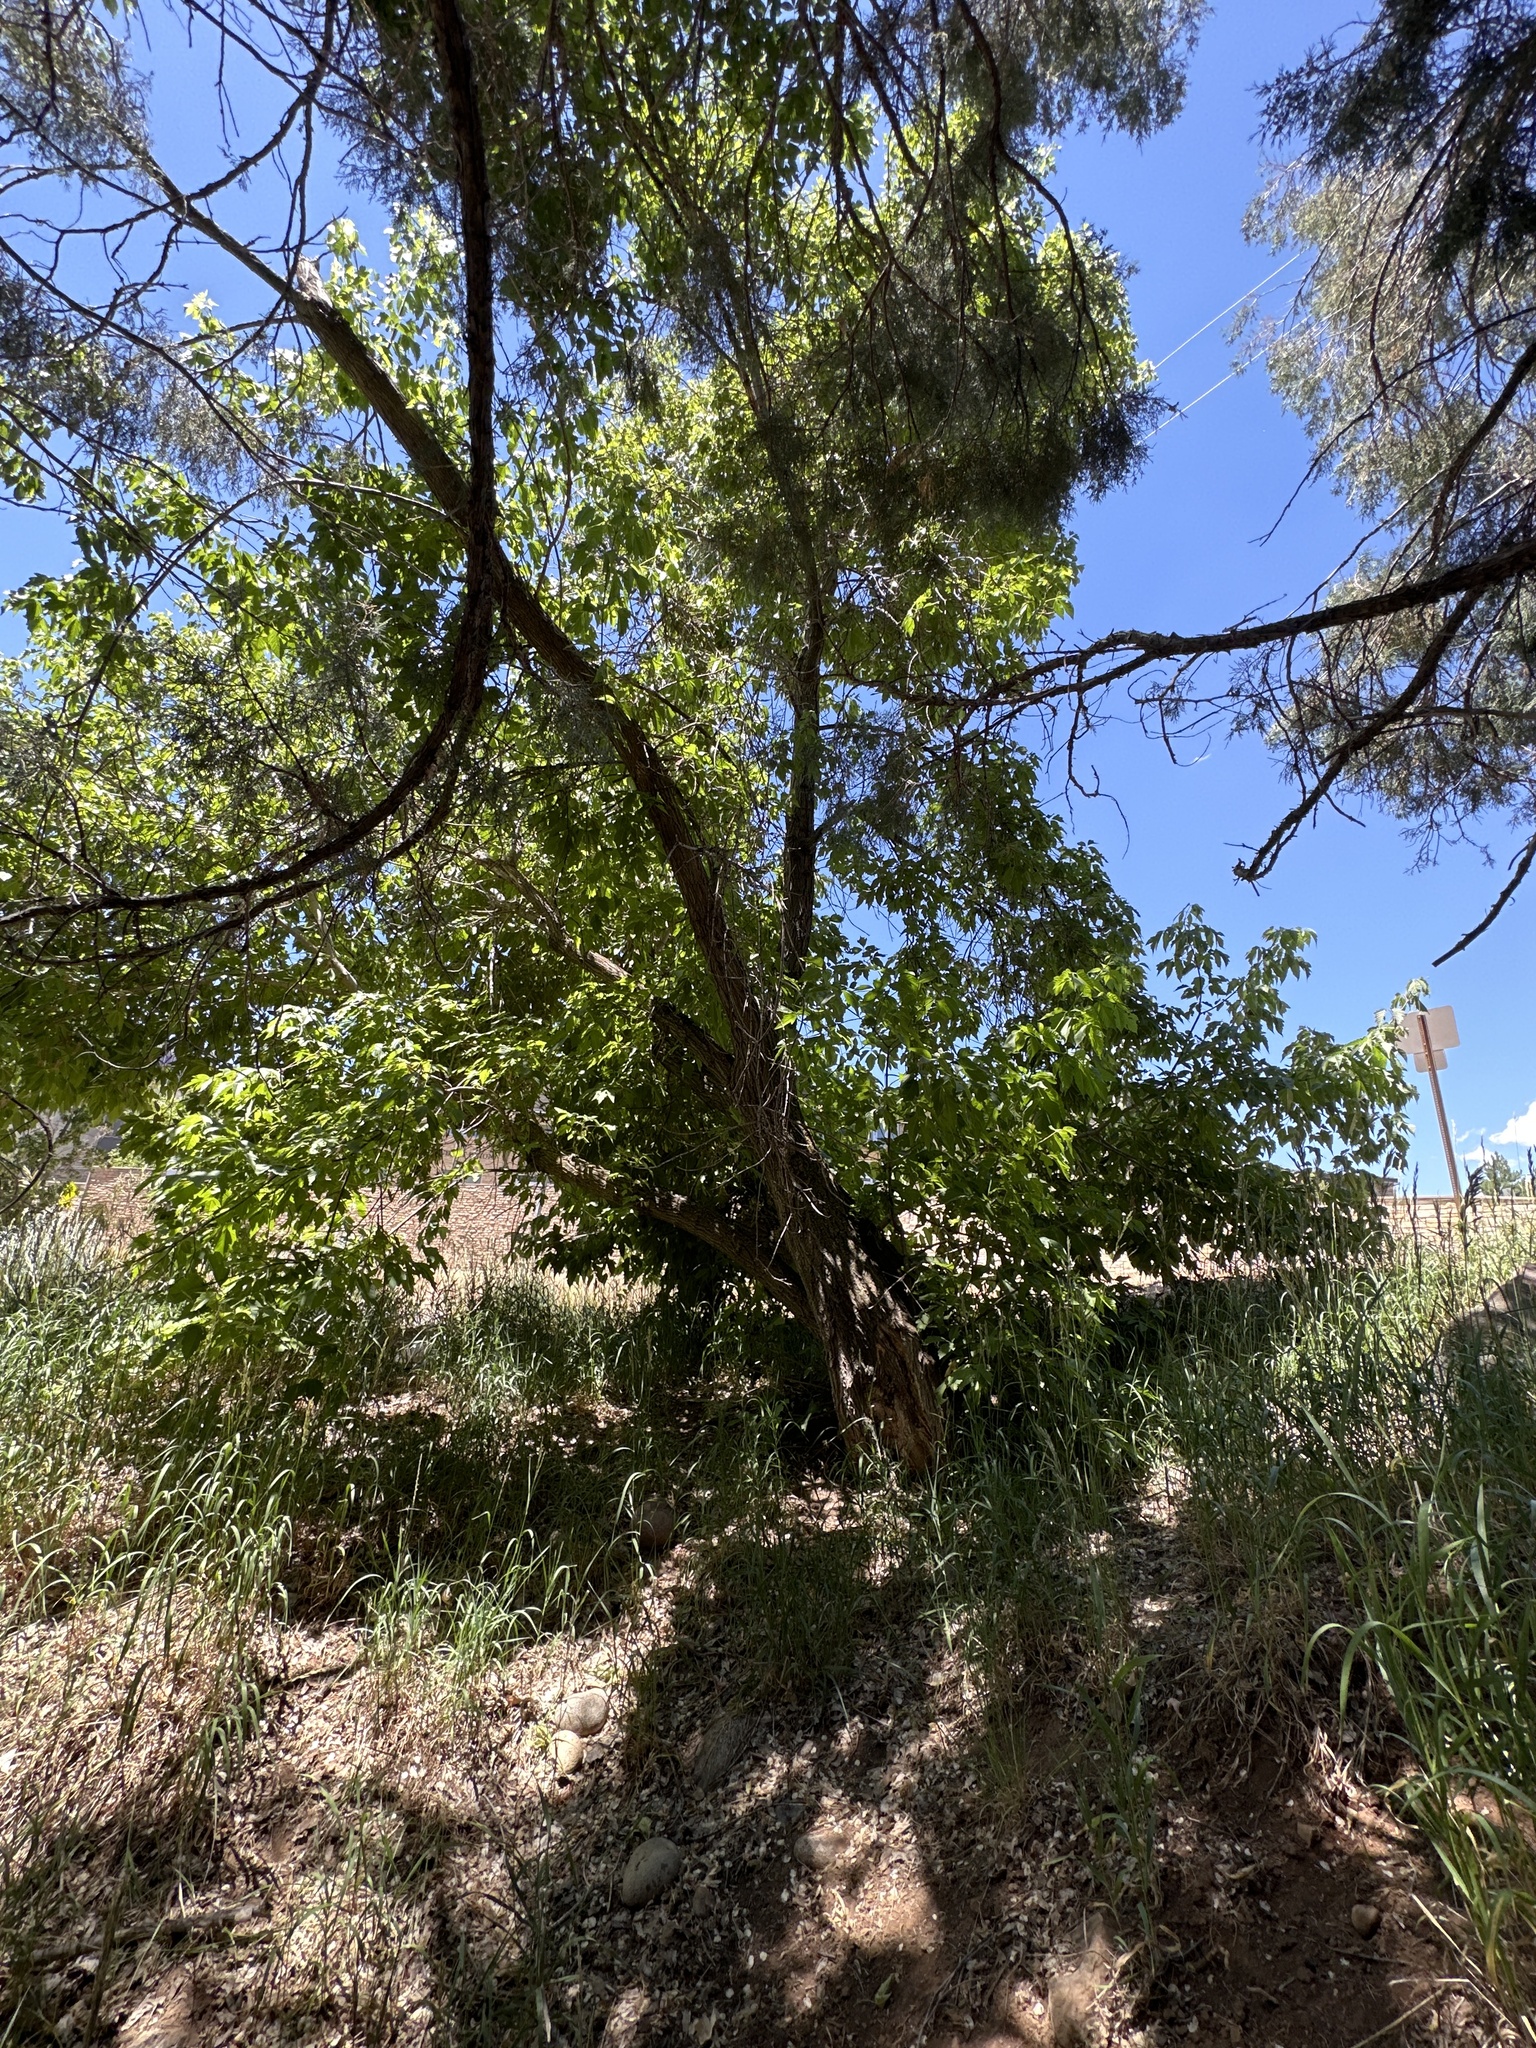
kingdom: Plantae
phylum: Tracheophyta
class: Magnoliopsida
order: Sapindales
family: Sapindaceae
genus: Acer
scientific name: Acer negundo
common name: Ashleaf maple
